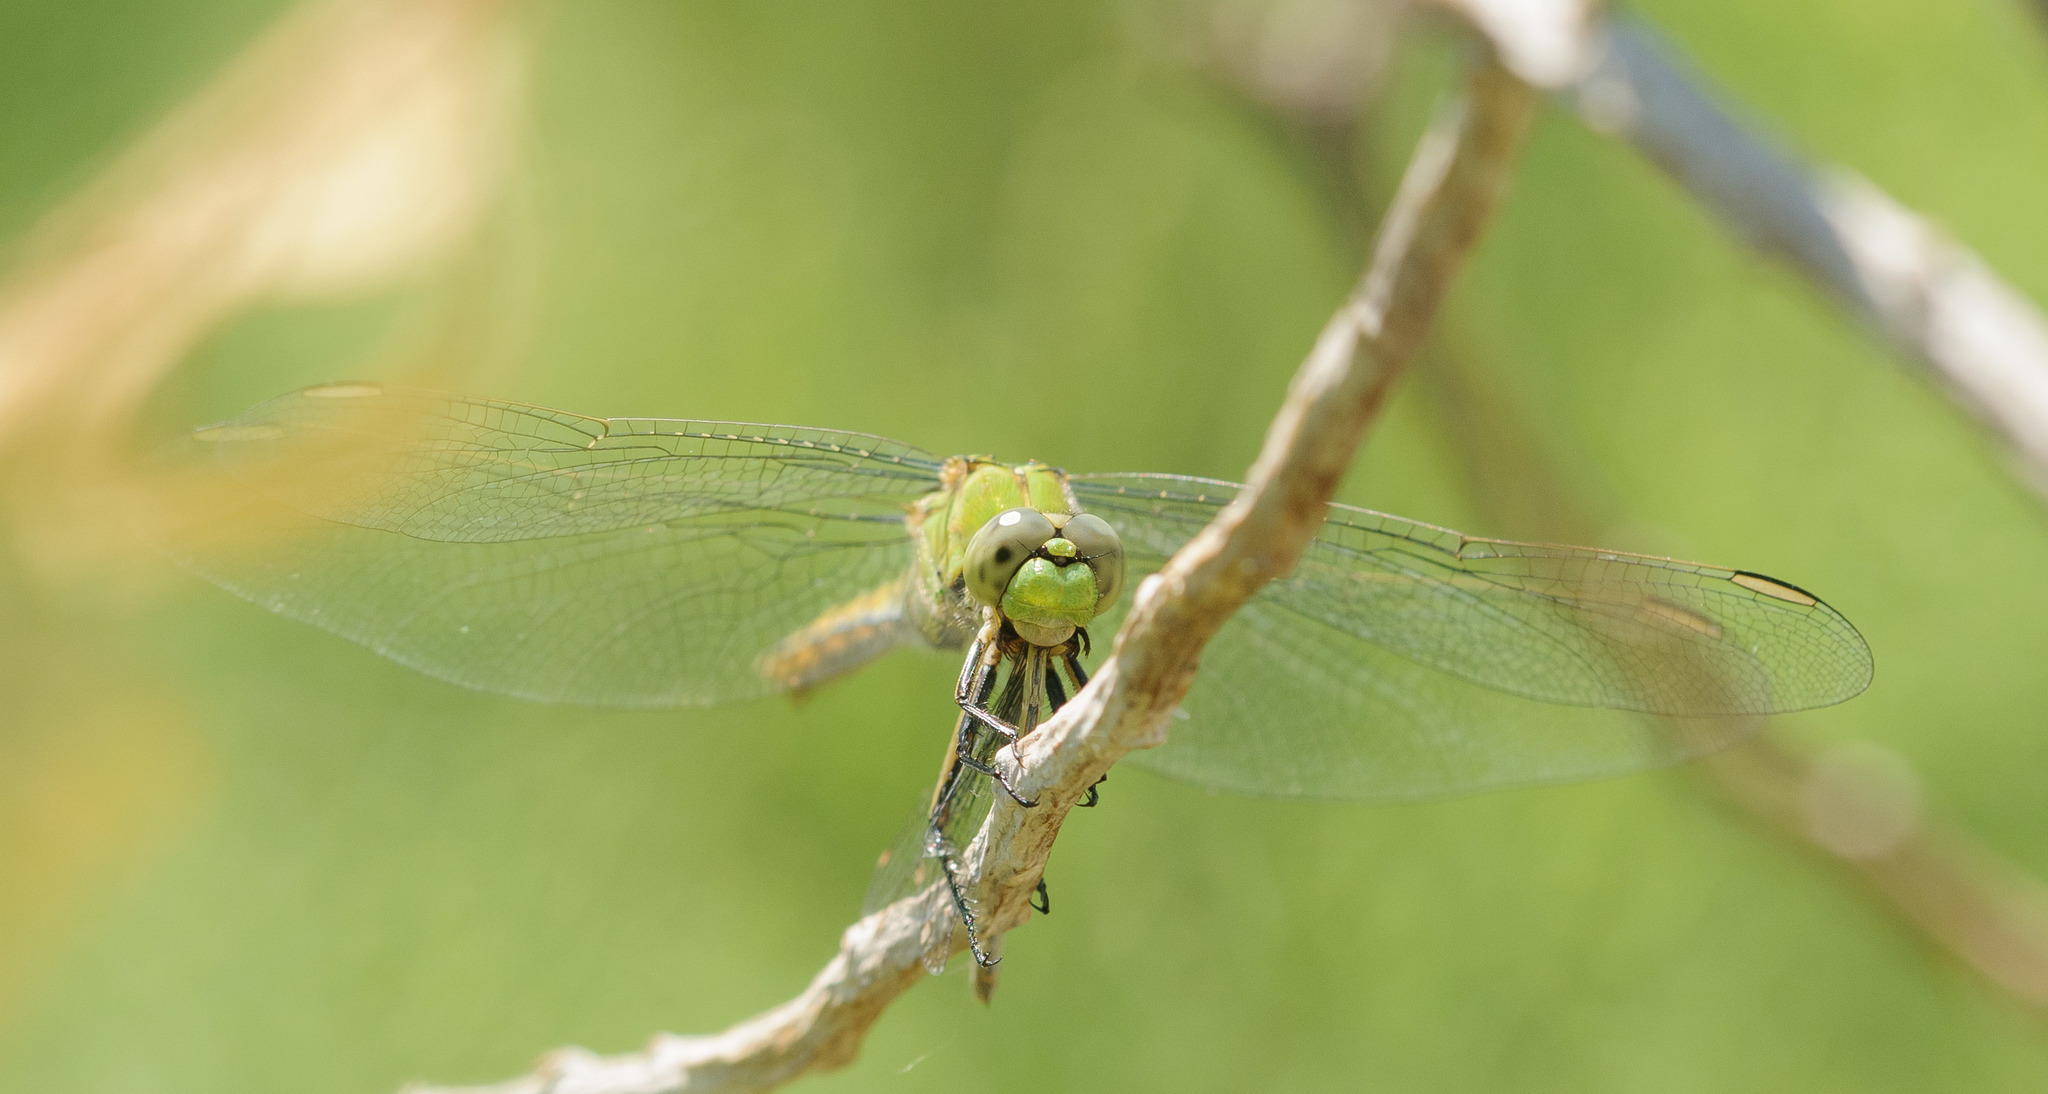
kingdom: Animalia
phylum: Arthropoda
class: Insecta
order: Odonata
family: Libellulidae
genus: Erythemis
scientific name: Erythemis collocata
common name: Western pondhawk
